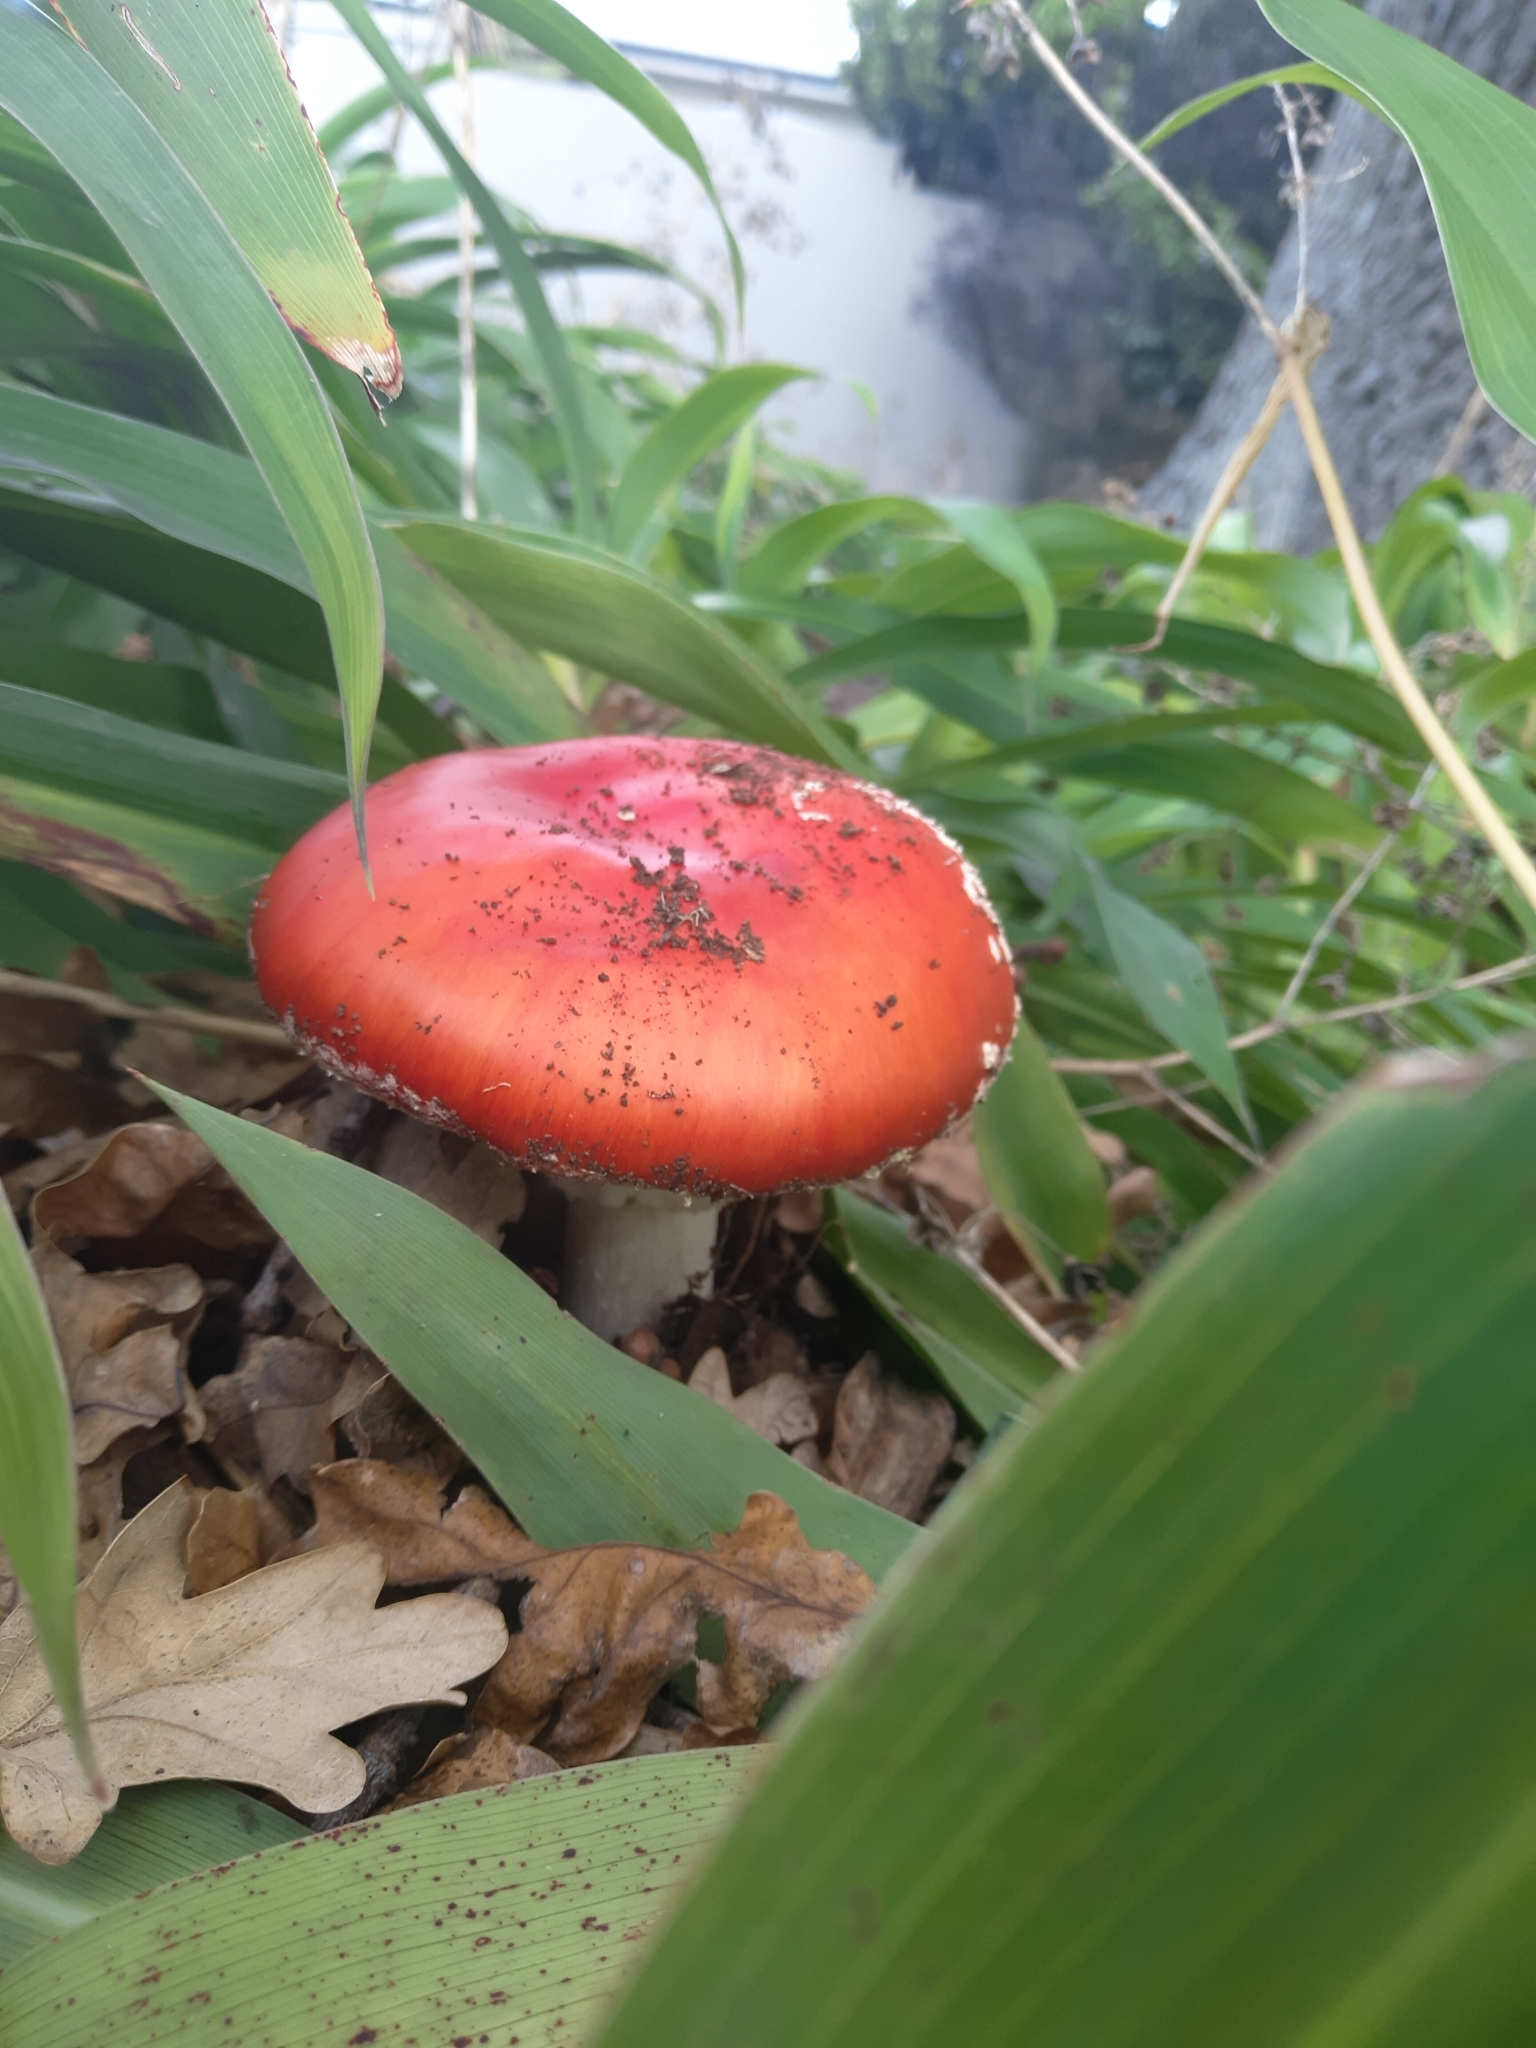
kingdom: Fungi
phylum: Basidiomycota
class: Agaricomycetes
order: Agaricales
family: Amanitaceae
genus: Amanita
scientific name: Amanita muscaria
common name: Fly agaric
